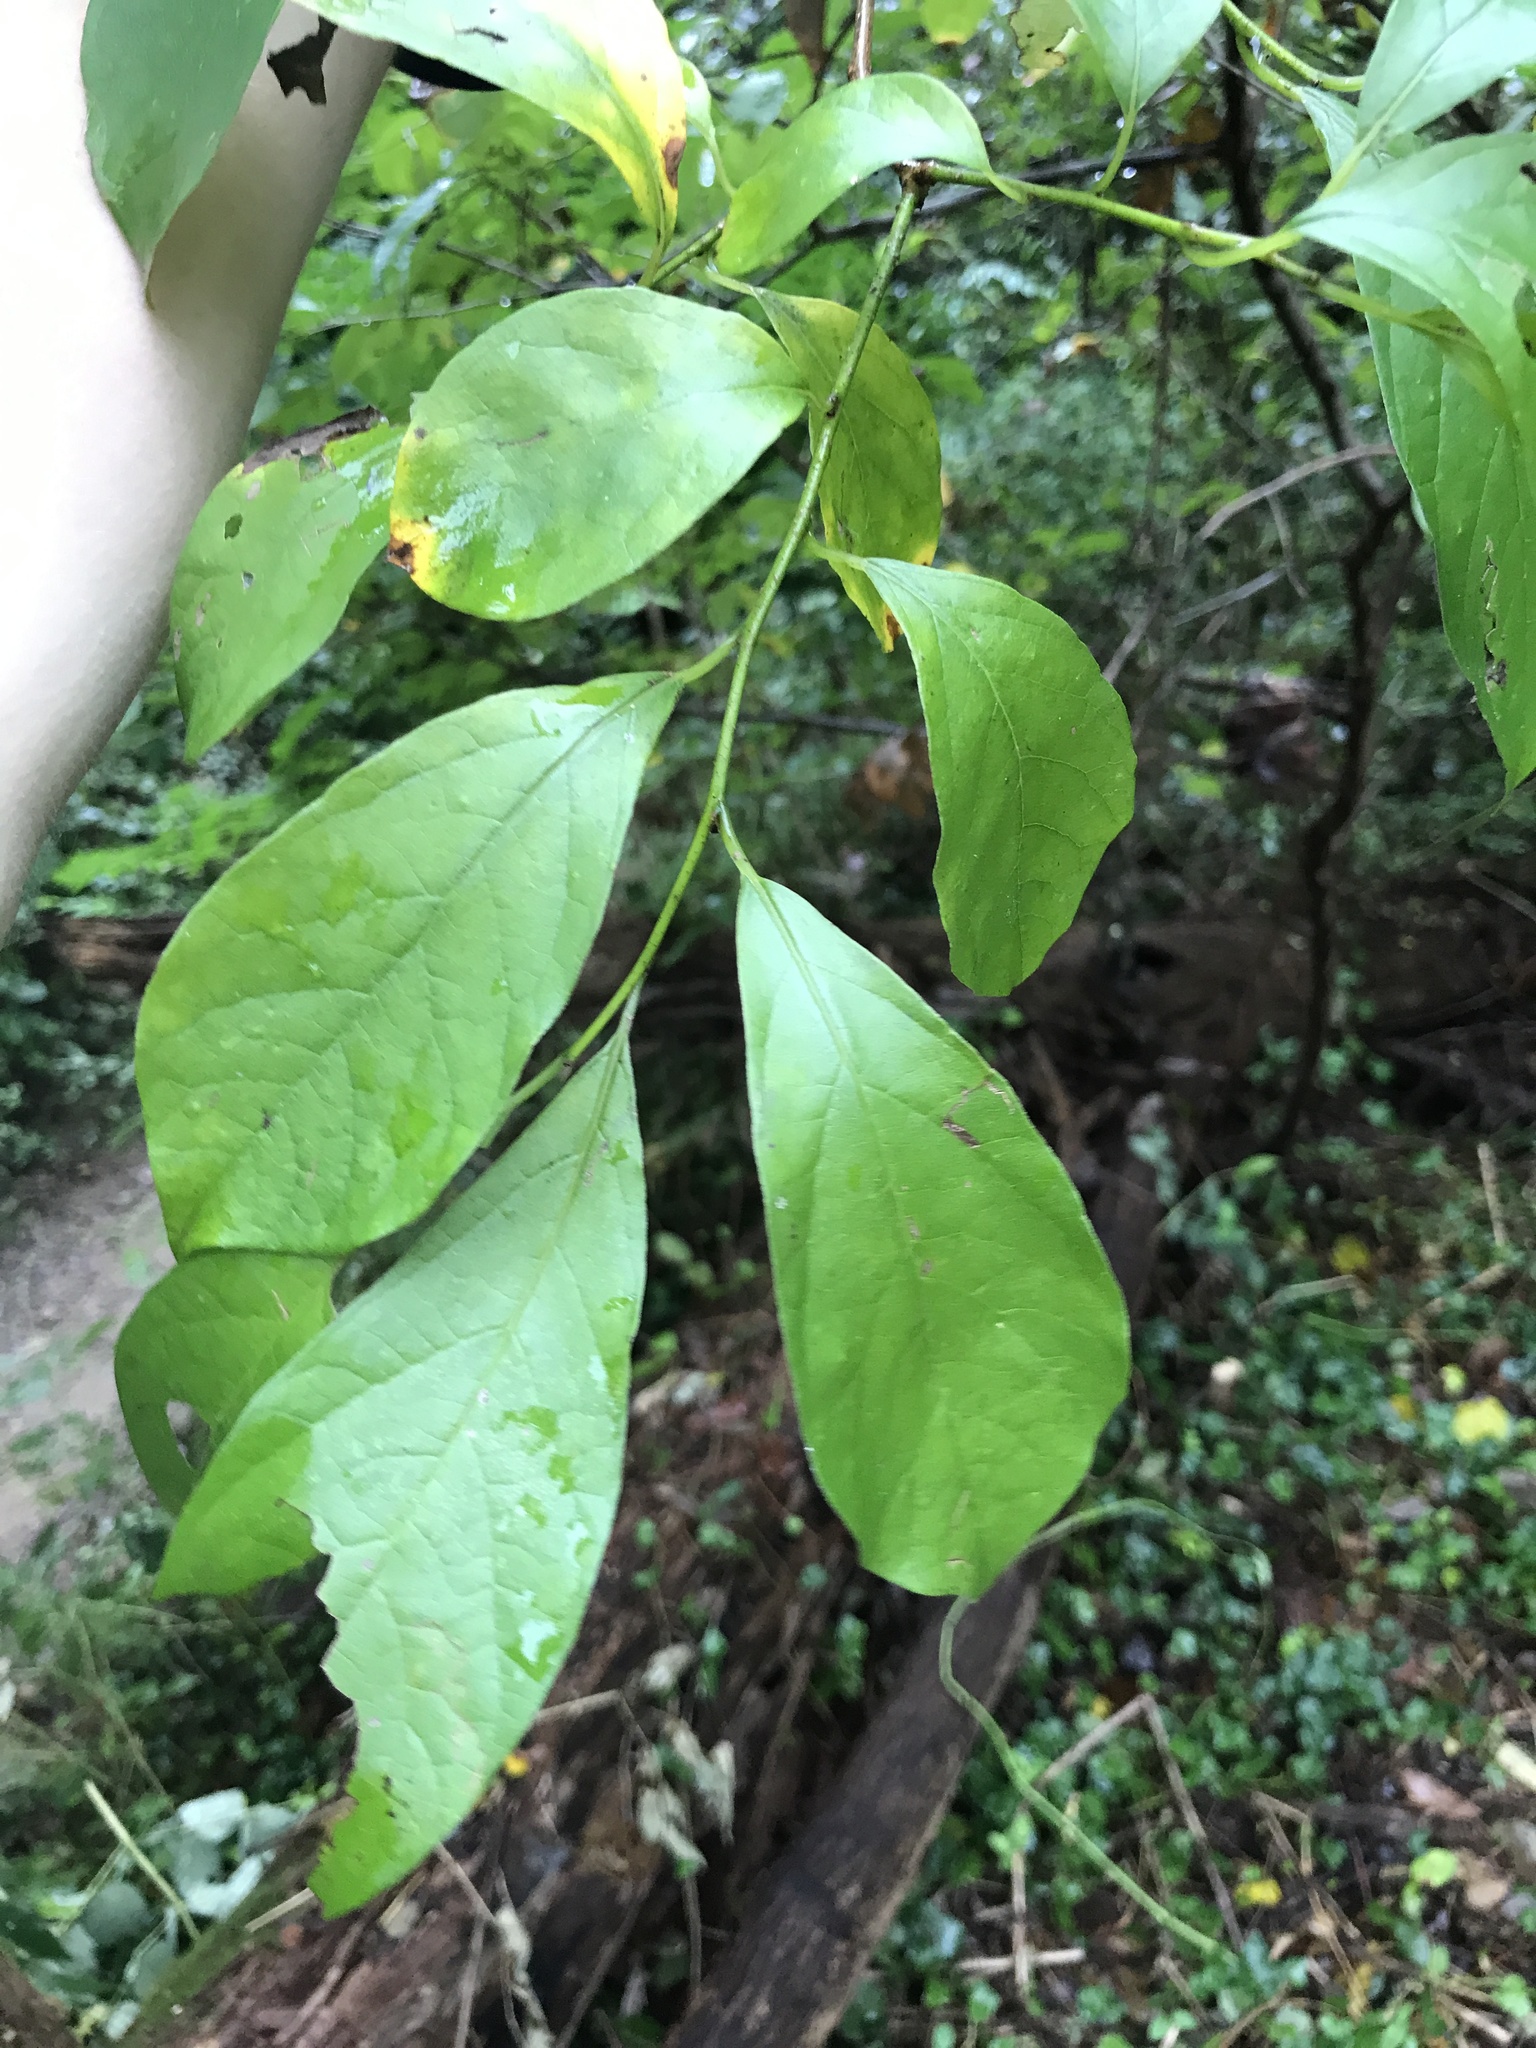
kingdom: Plantae
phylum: Tracheophyta
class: Magnoliopsida
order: Laurales
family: Lauraceae
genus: Lindera
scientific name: Lindera benzoin
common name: Spicebush
